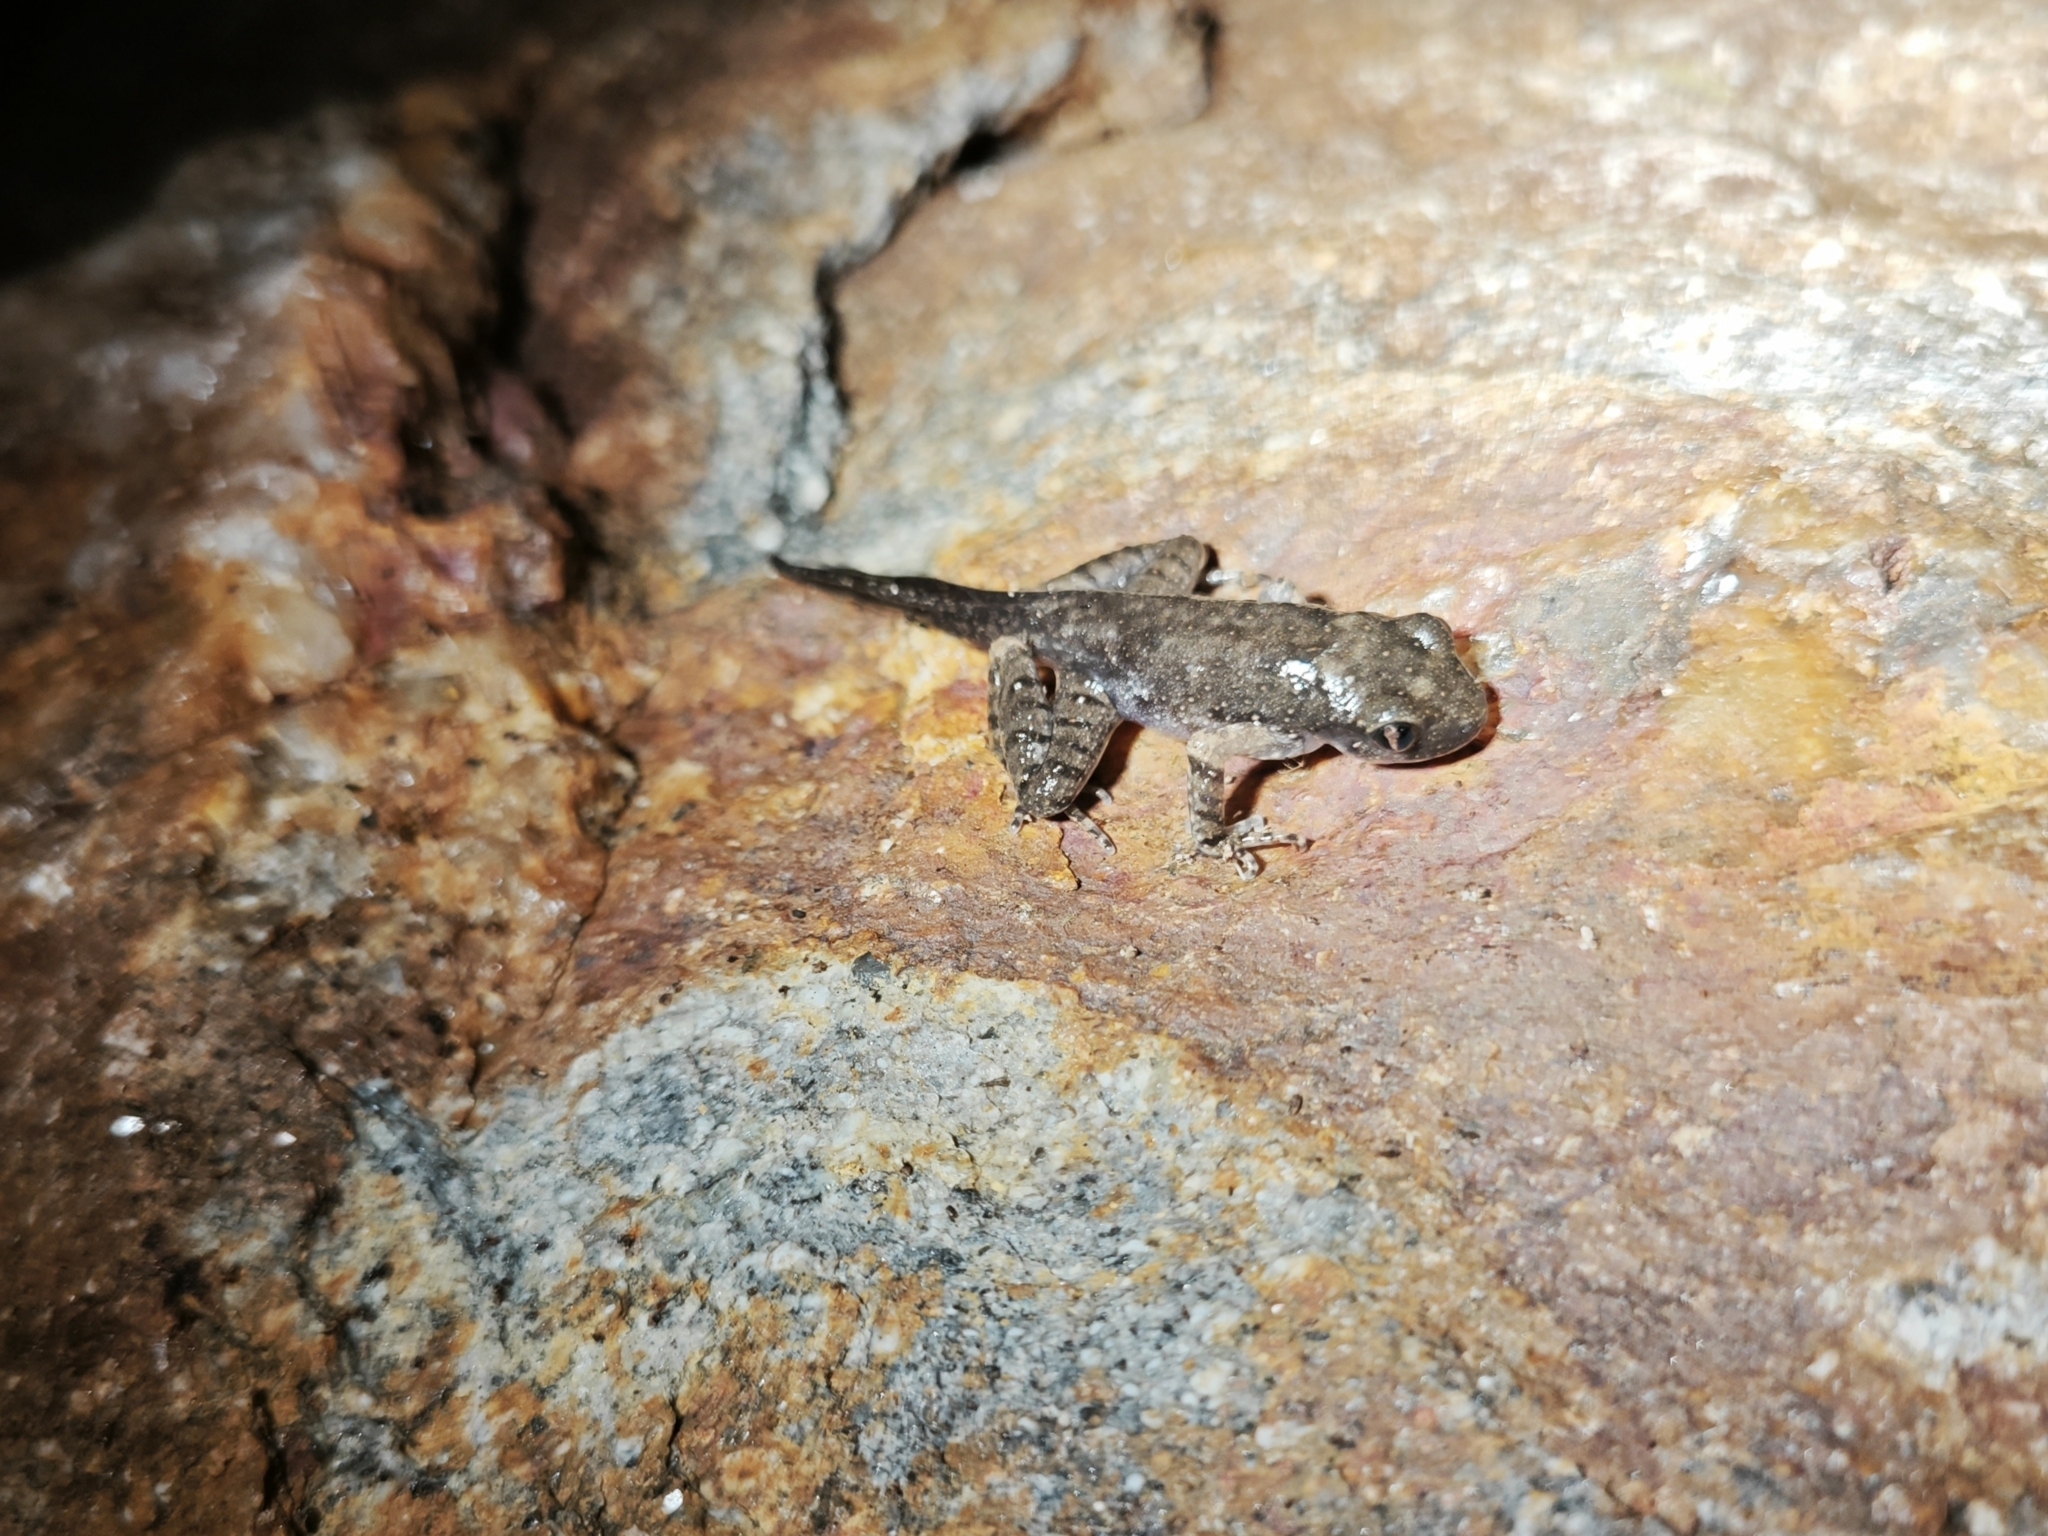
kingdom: Animalia
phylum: Chordata
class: Amphibia
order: Anura
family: Dicroglossidae
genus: Fejervarya
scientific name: Fejervarya multistriata
